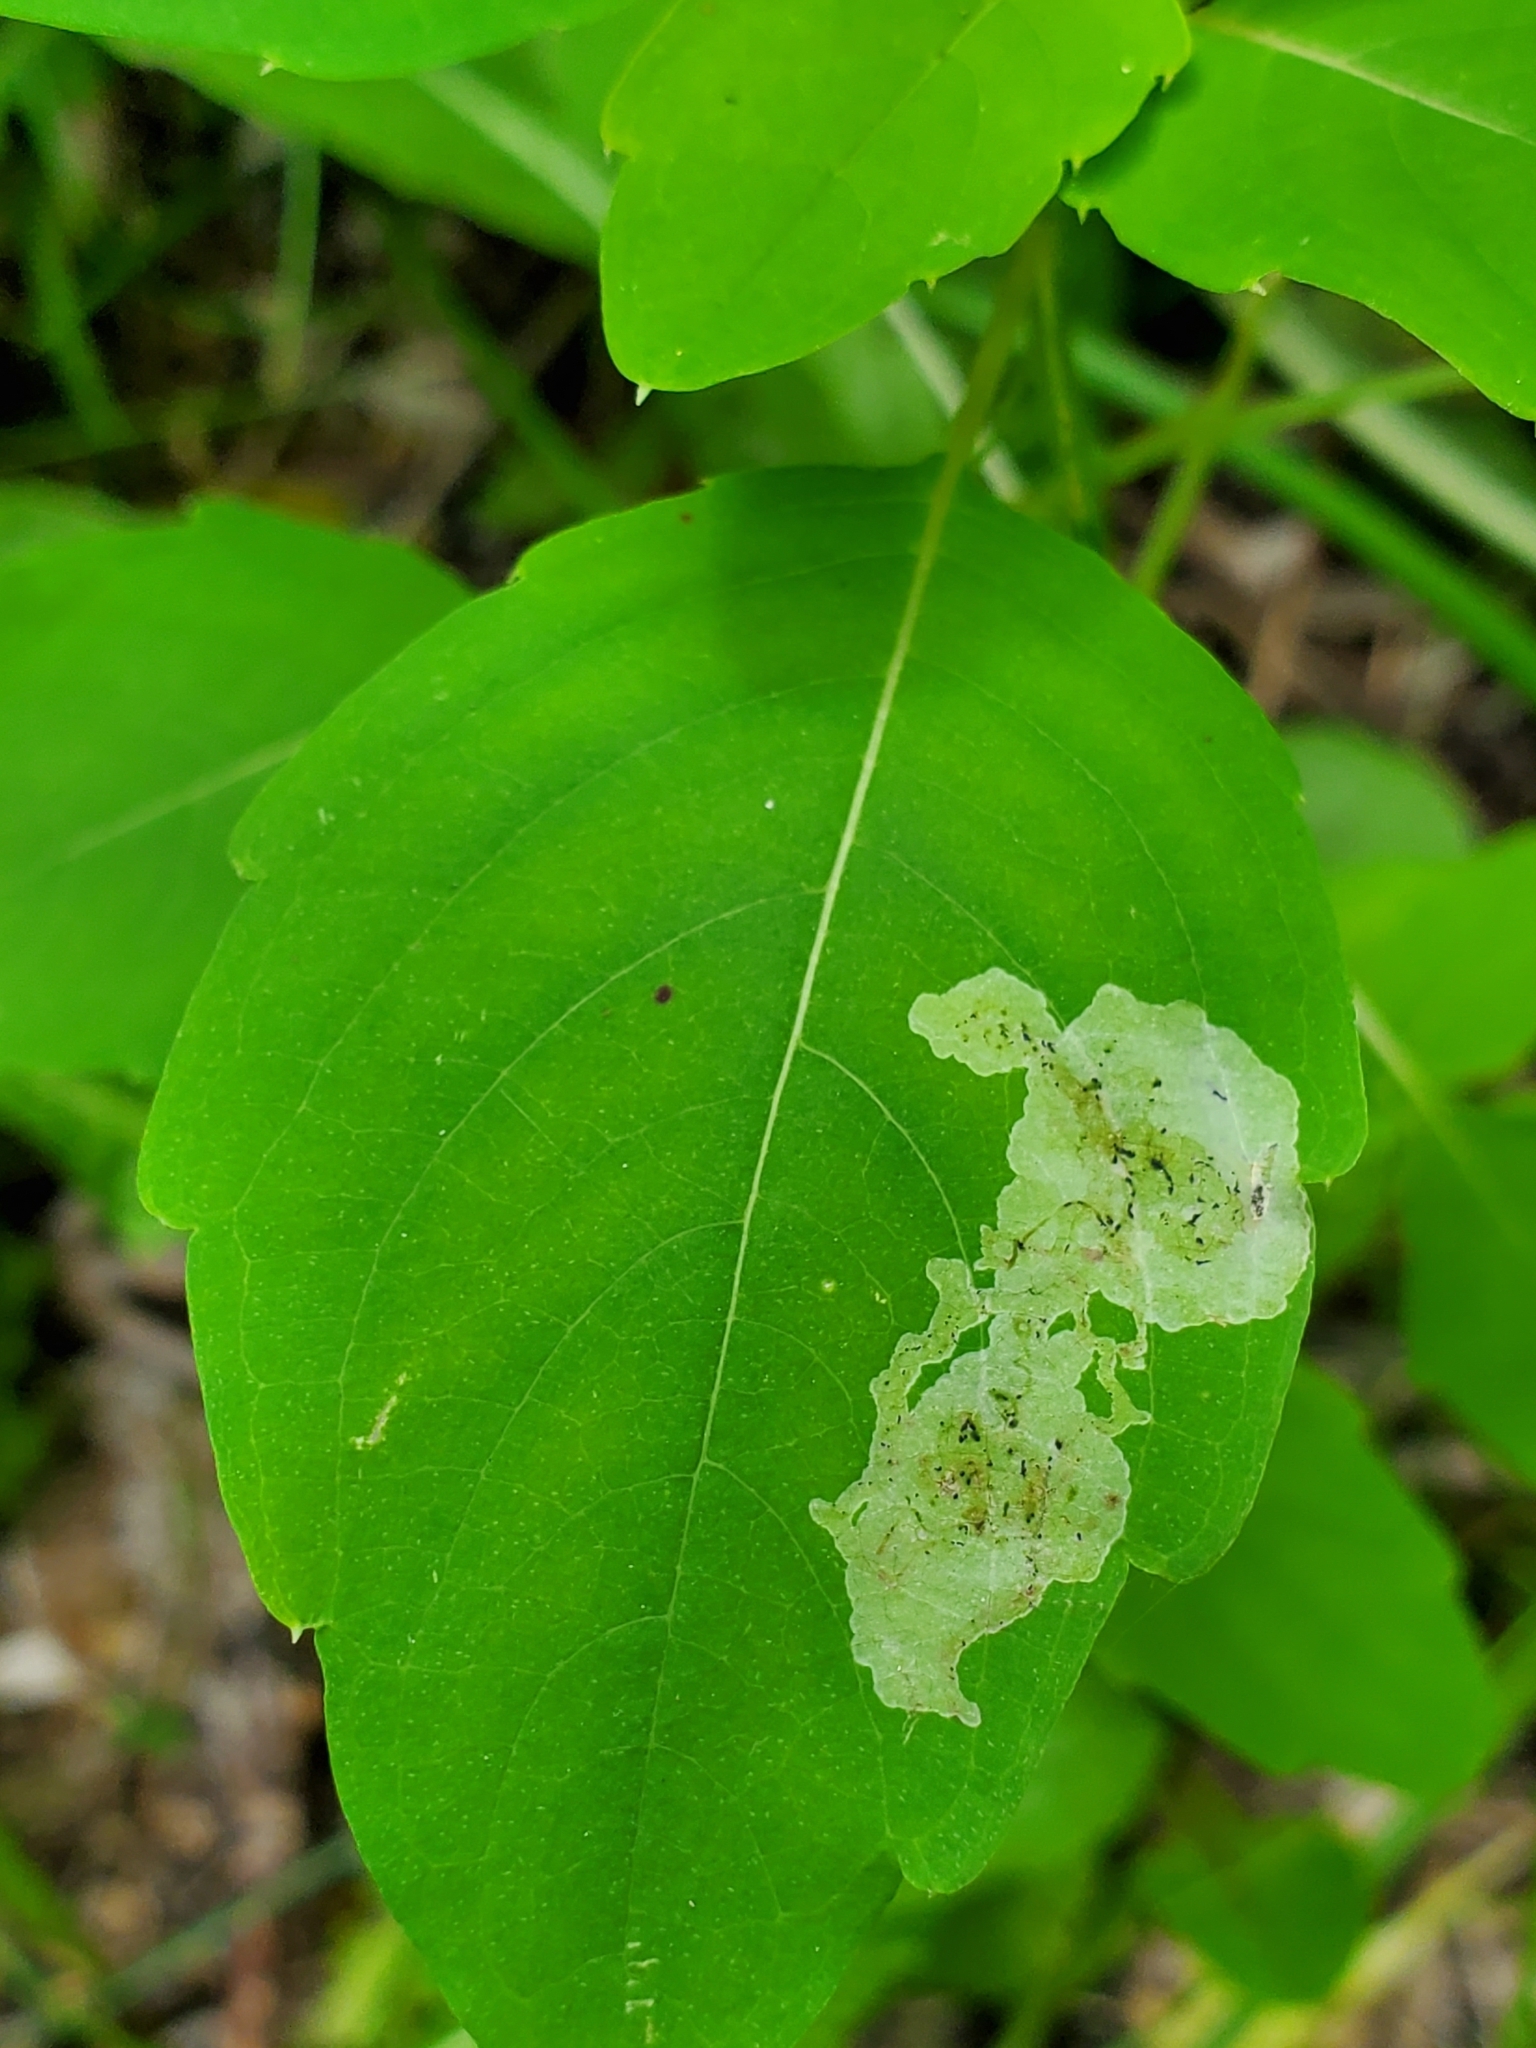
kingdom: Animalia
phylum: Arthropoda
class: Insecta
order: Diptera
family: Agromyzidae
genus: Phytoliriomyza
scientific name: Phytoliriomyza melampyga
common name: Jewelweed leaf-miner fly
